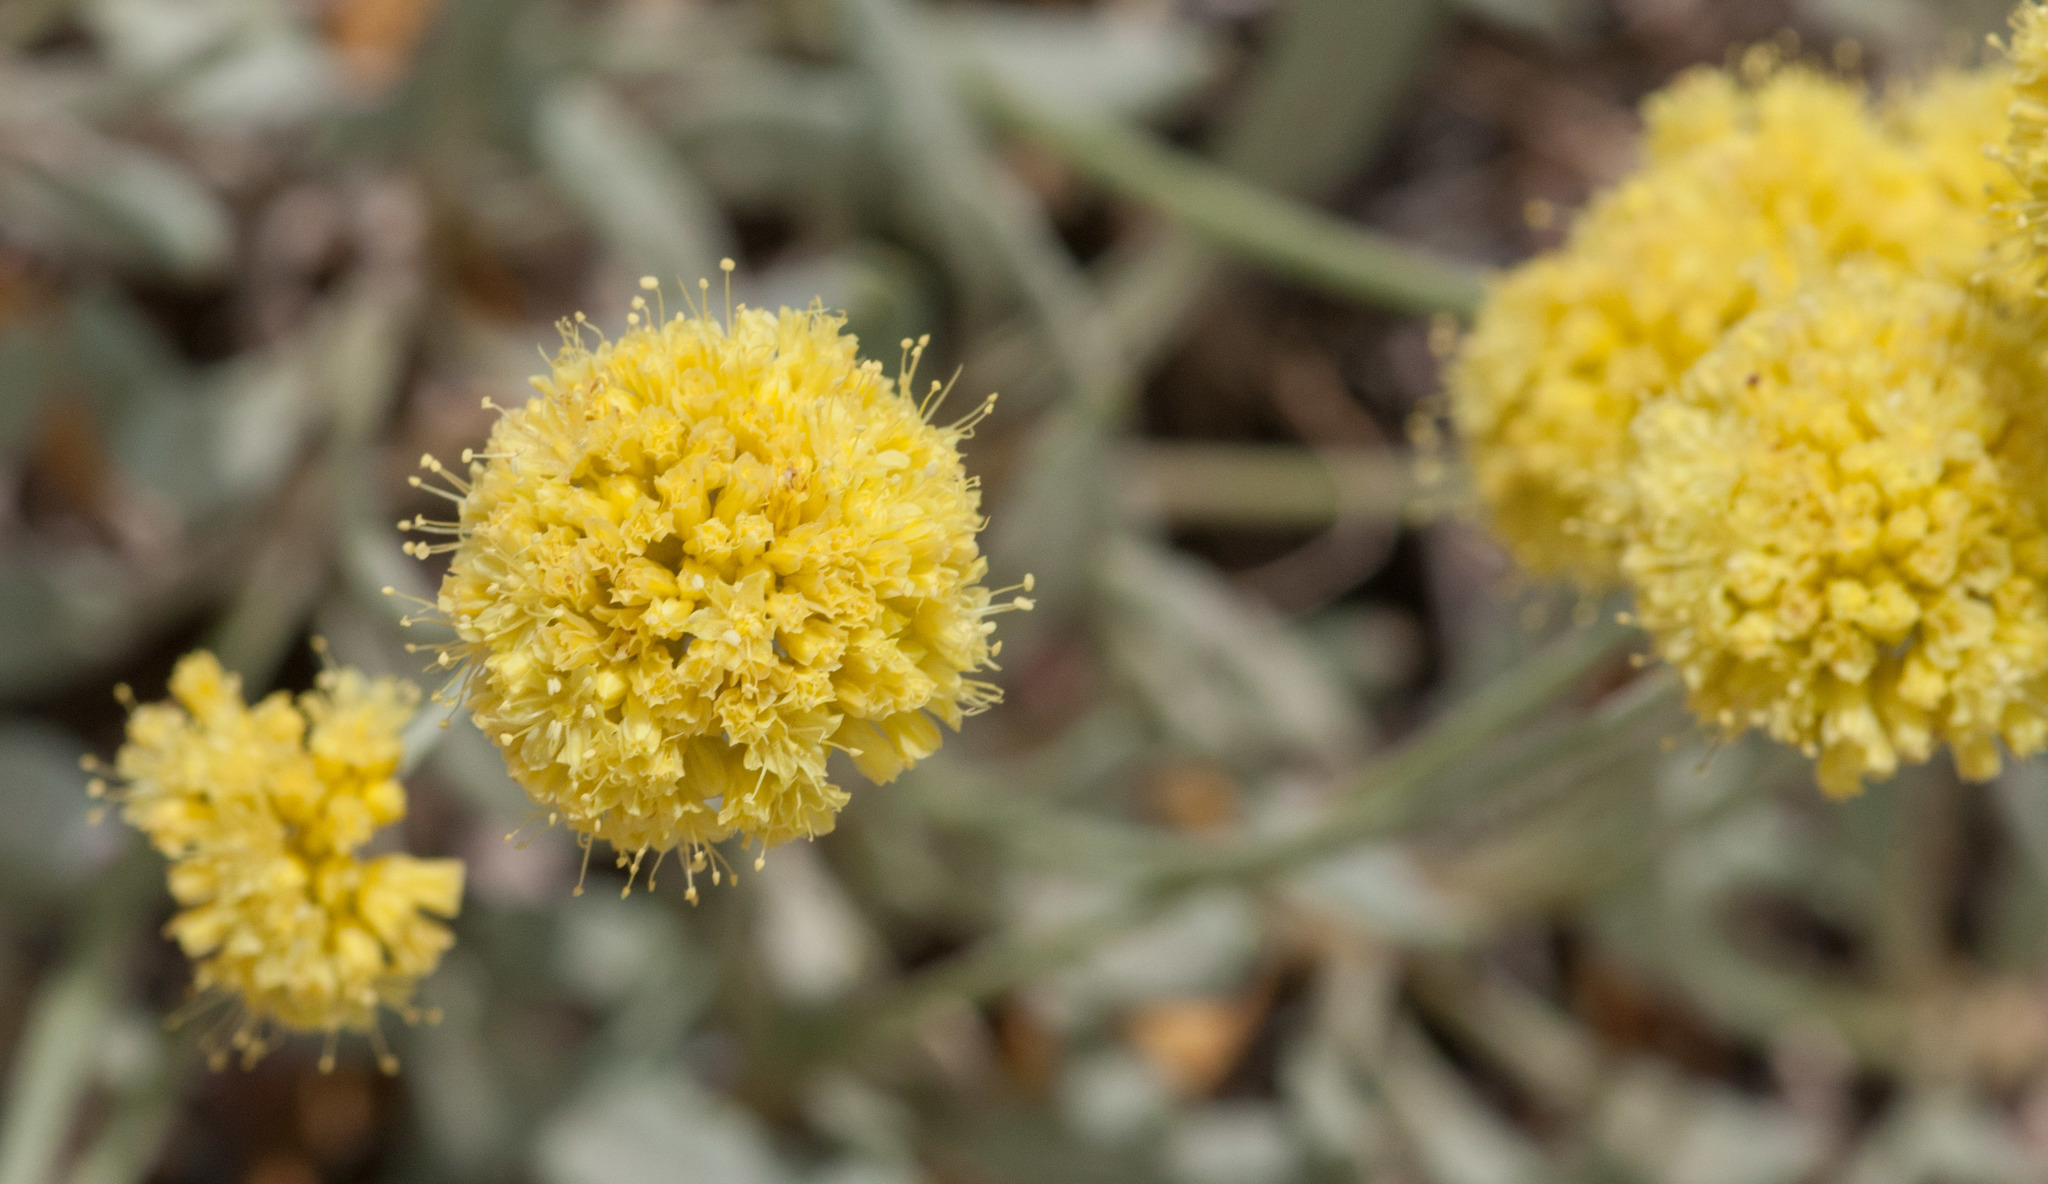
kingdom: Plantae
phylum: Tracheophyta
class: Magnoliopsida
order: Caryophyllales
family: Polygonaceae
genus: Eriogonum
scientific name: Eriogonum ovalifolium
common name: Cushion buckwheat
